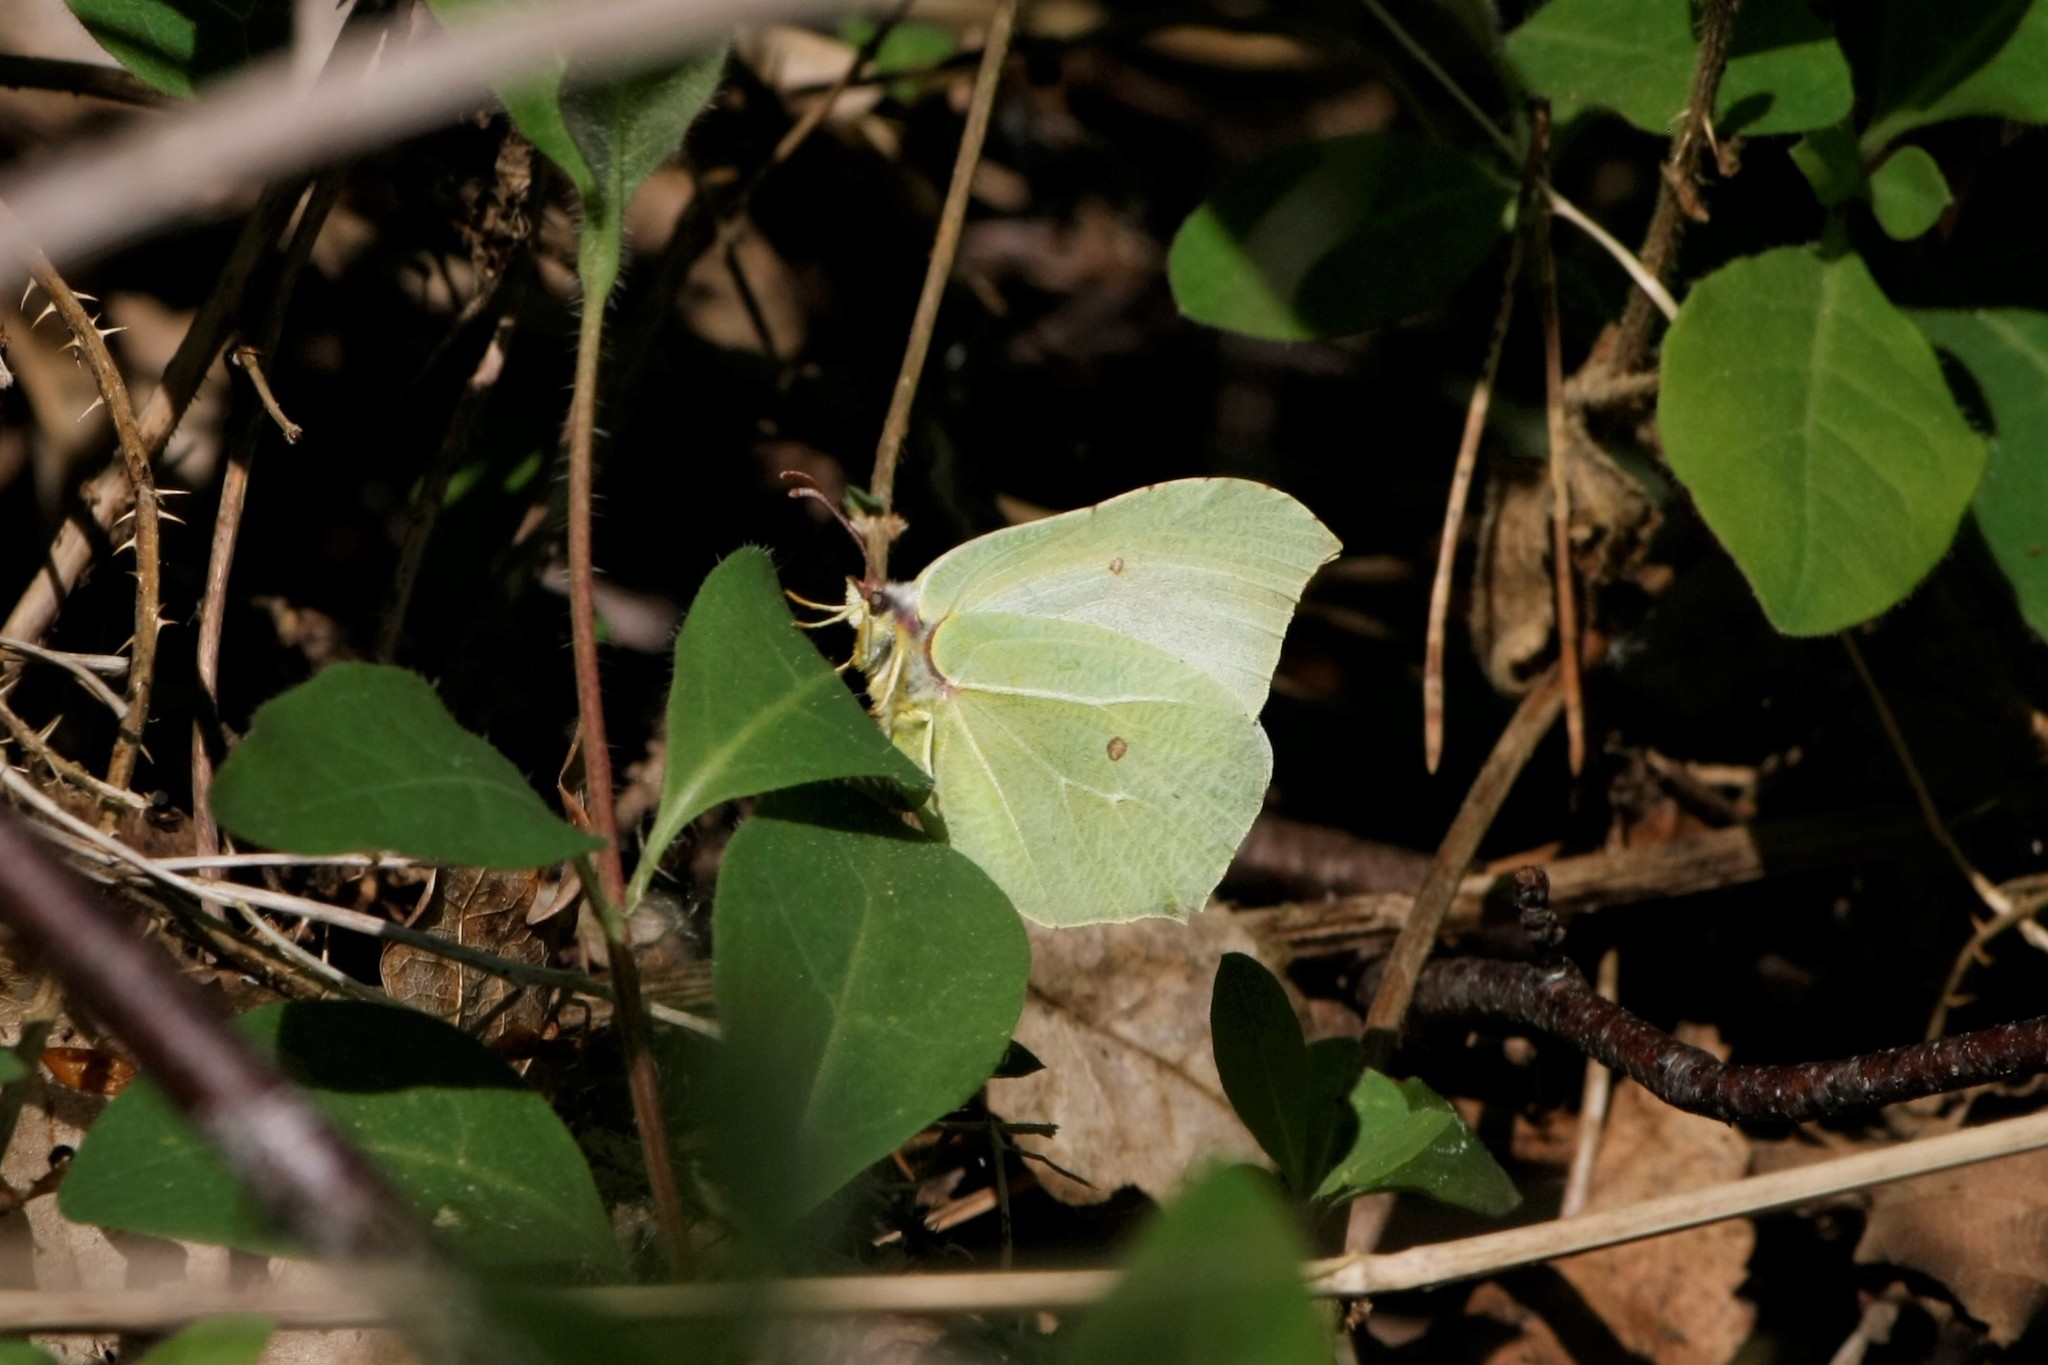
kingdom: Animalia
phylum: Arthropoda
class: Insecta
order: Lepidoptera
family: Pieridae
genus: Gonepteryx
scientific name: Gonepteryx rhamni
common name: Brimstone
